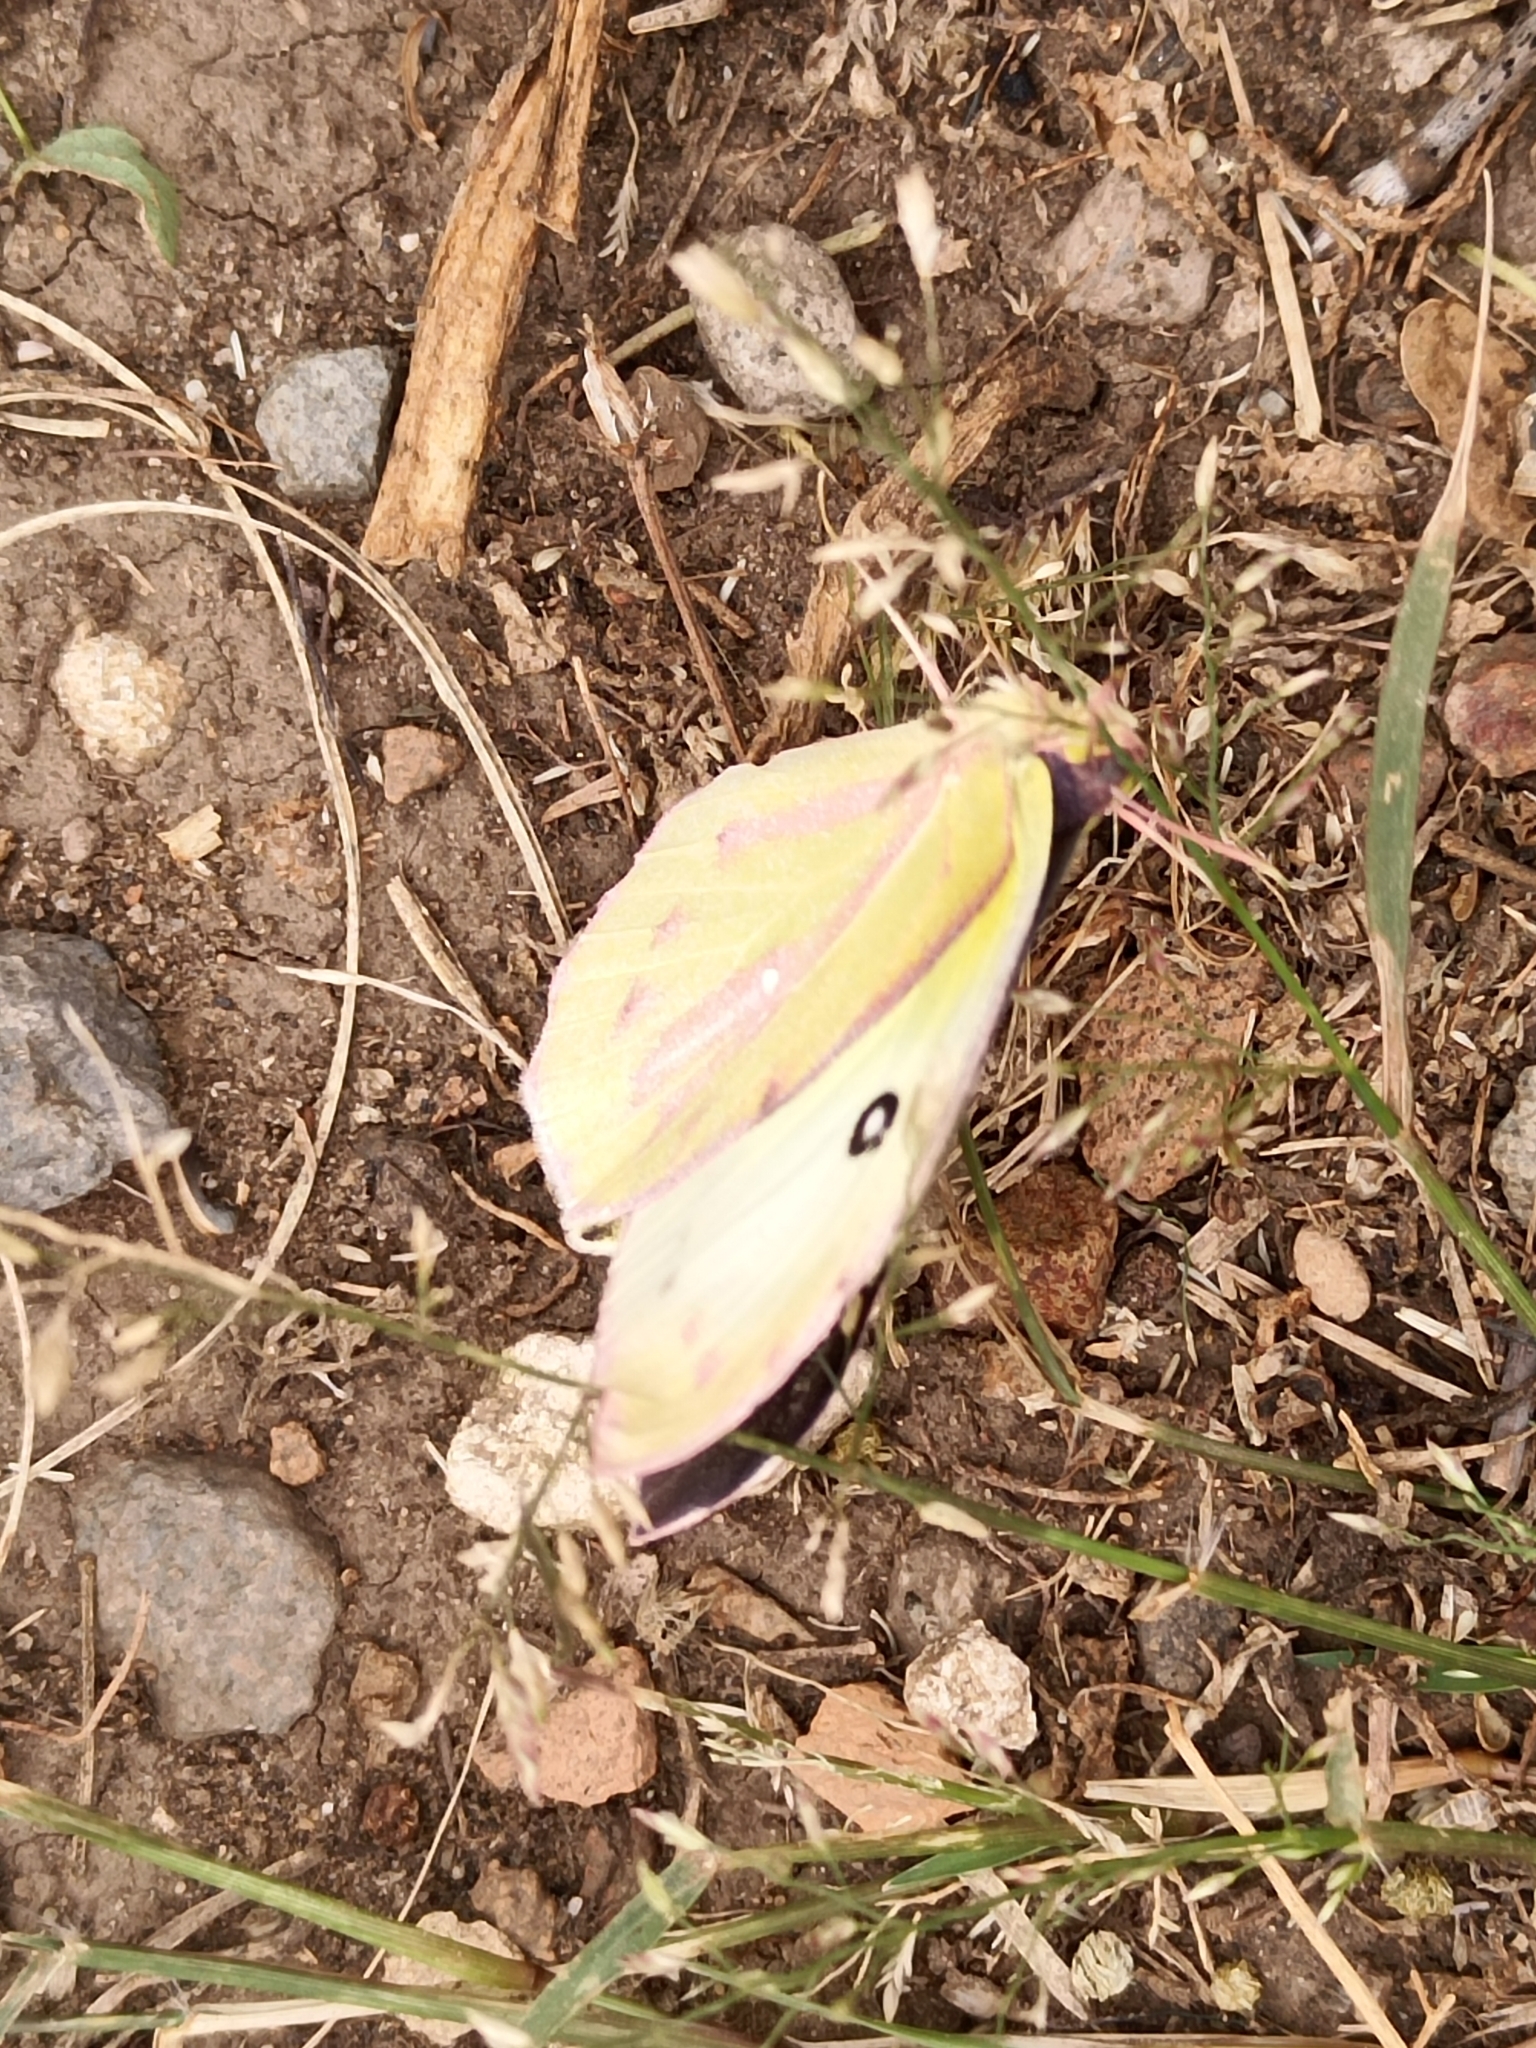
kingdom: Animalia
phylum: Arthropoda
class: Insecta
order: Lepidoptera
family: Pieridae
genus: Zerene
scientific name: Zerene cesonia
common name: Southern dogface
